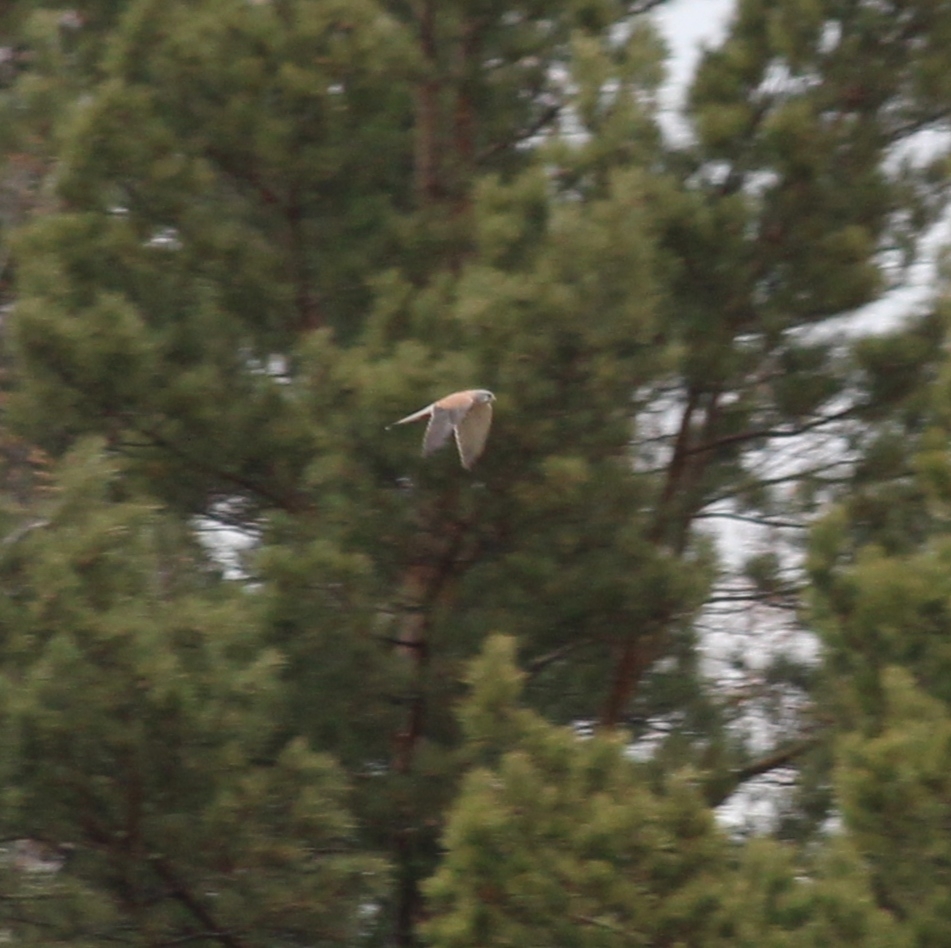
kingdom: Animalia
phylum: Chordata
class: Aves
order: Falconiformes
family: Falconidae
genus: Falco
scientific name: Falco tinnunculus
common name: Common kestrel
